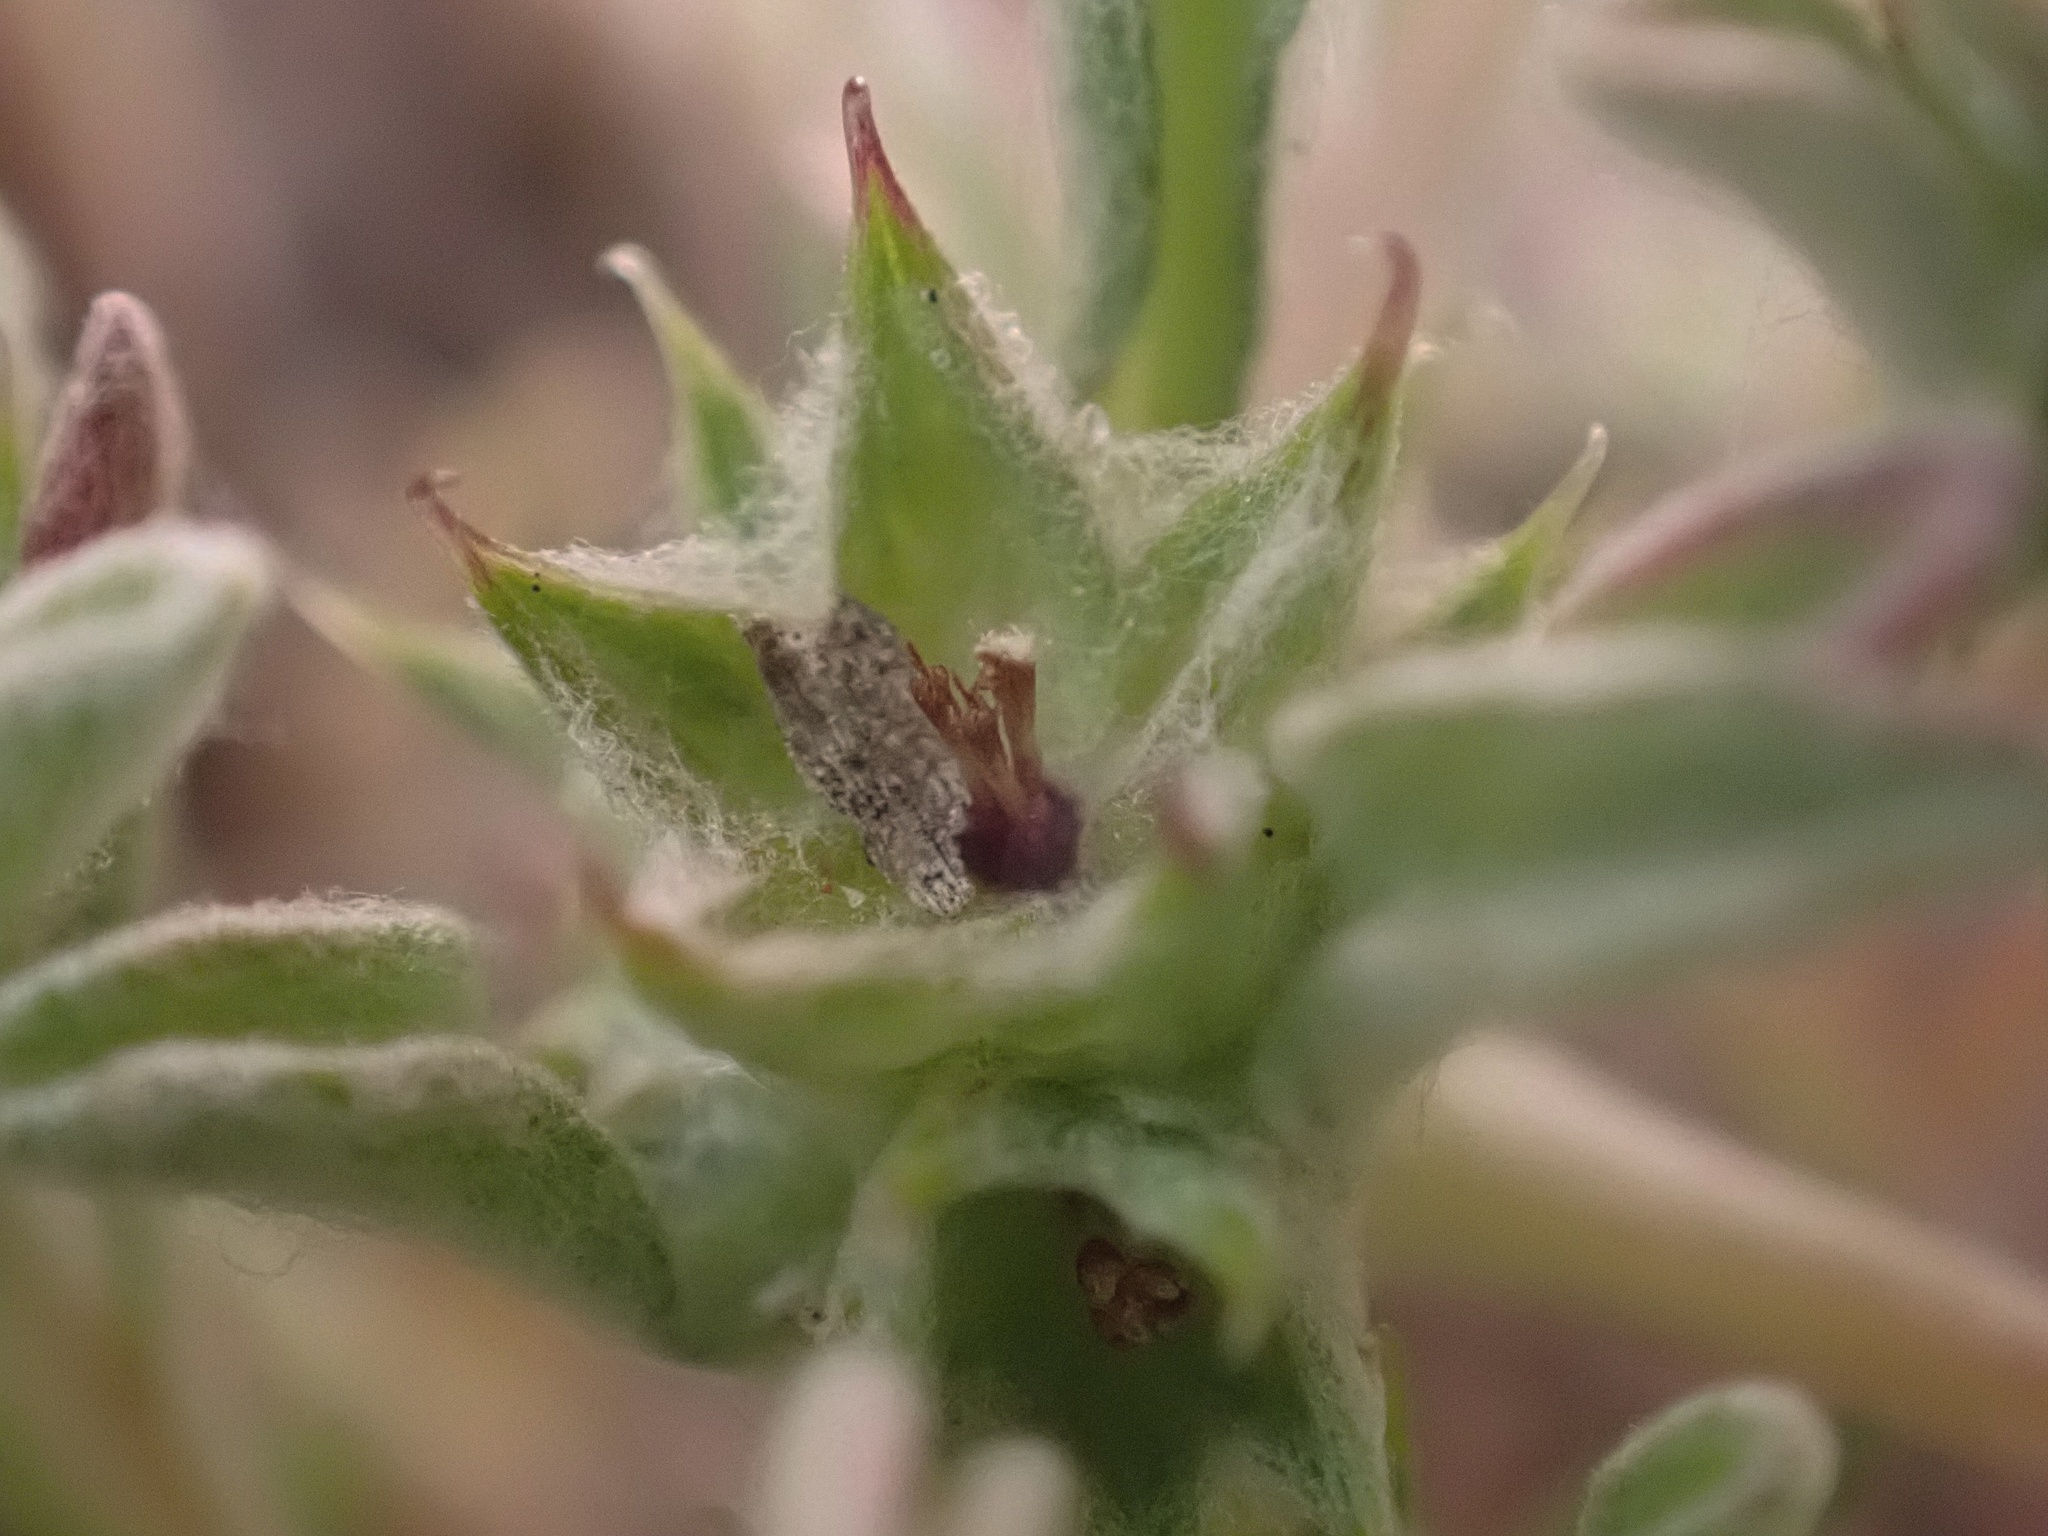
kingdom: Plantae
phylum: Tracheophyta
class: Magnoliopsida
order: Asterales
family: Asteraceae
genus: Ancistrocarphus
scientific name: Ancistrocarphus filagineus
